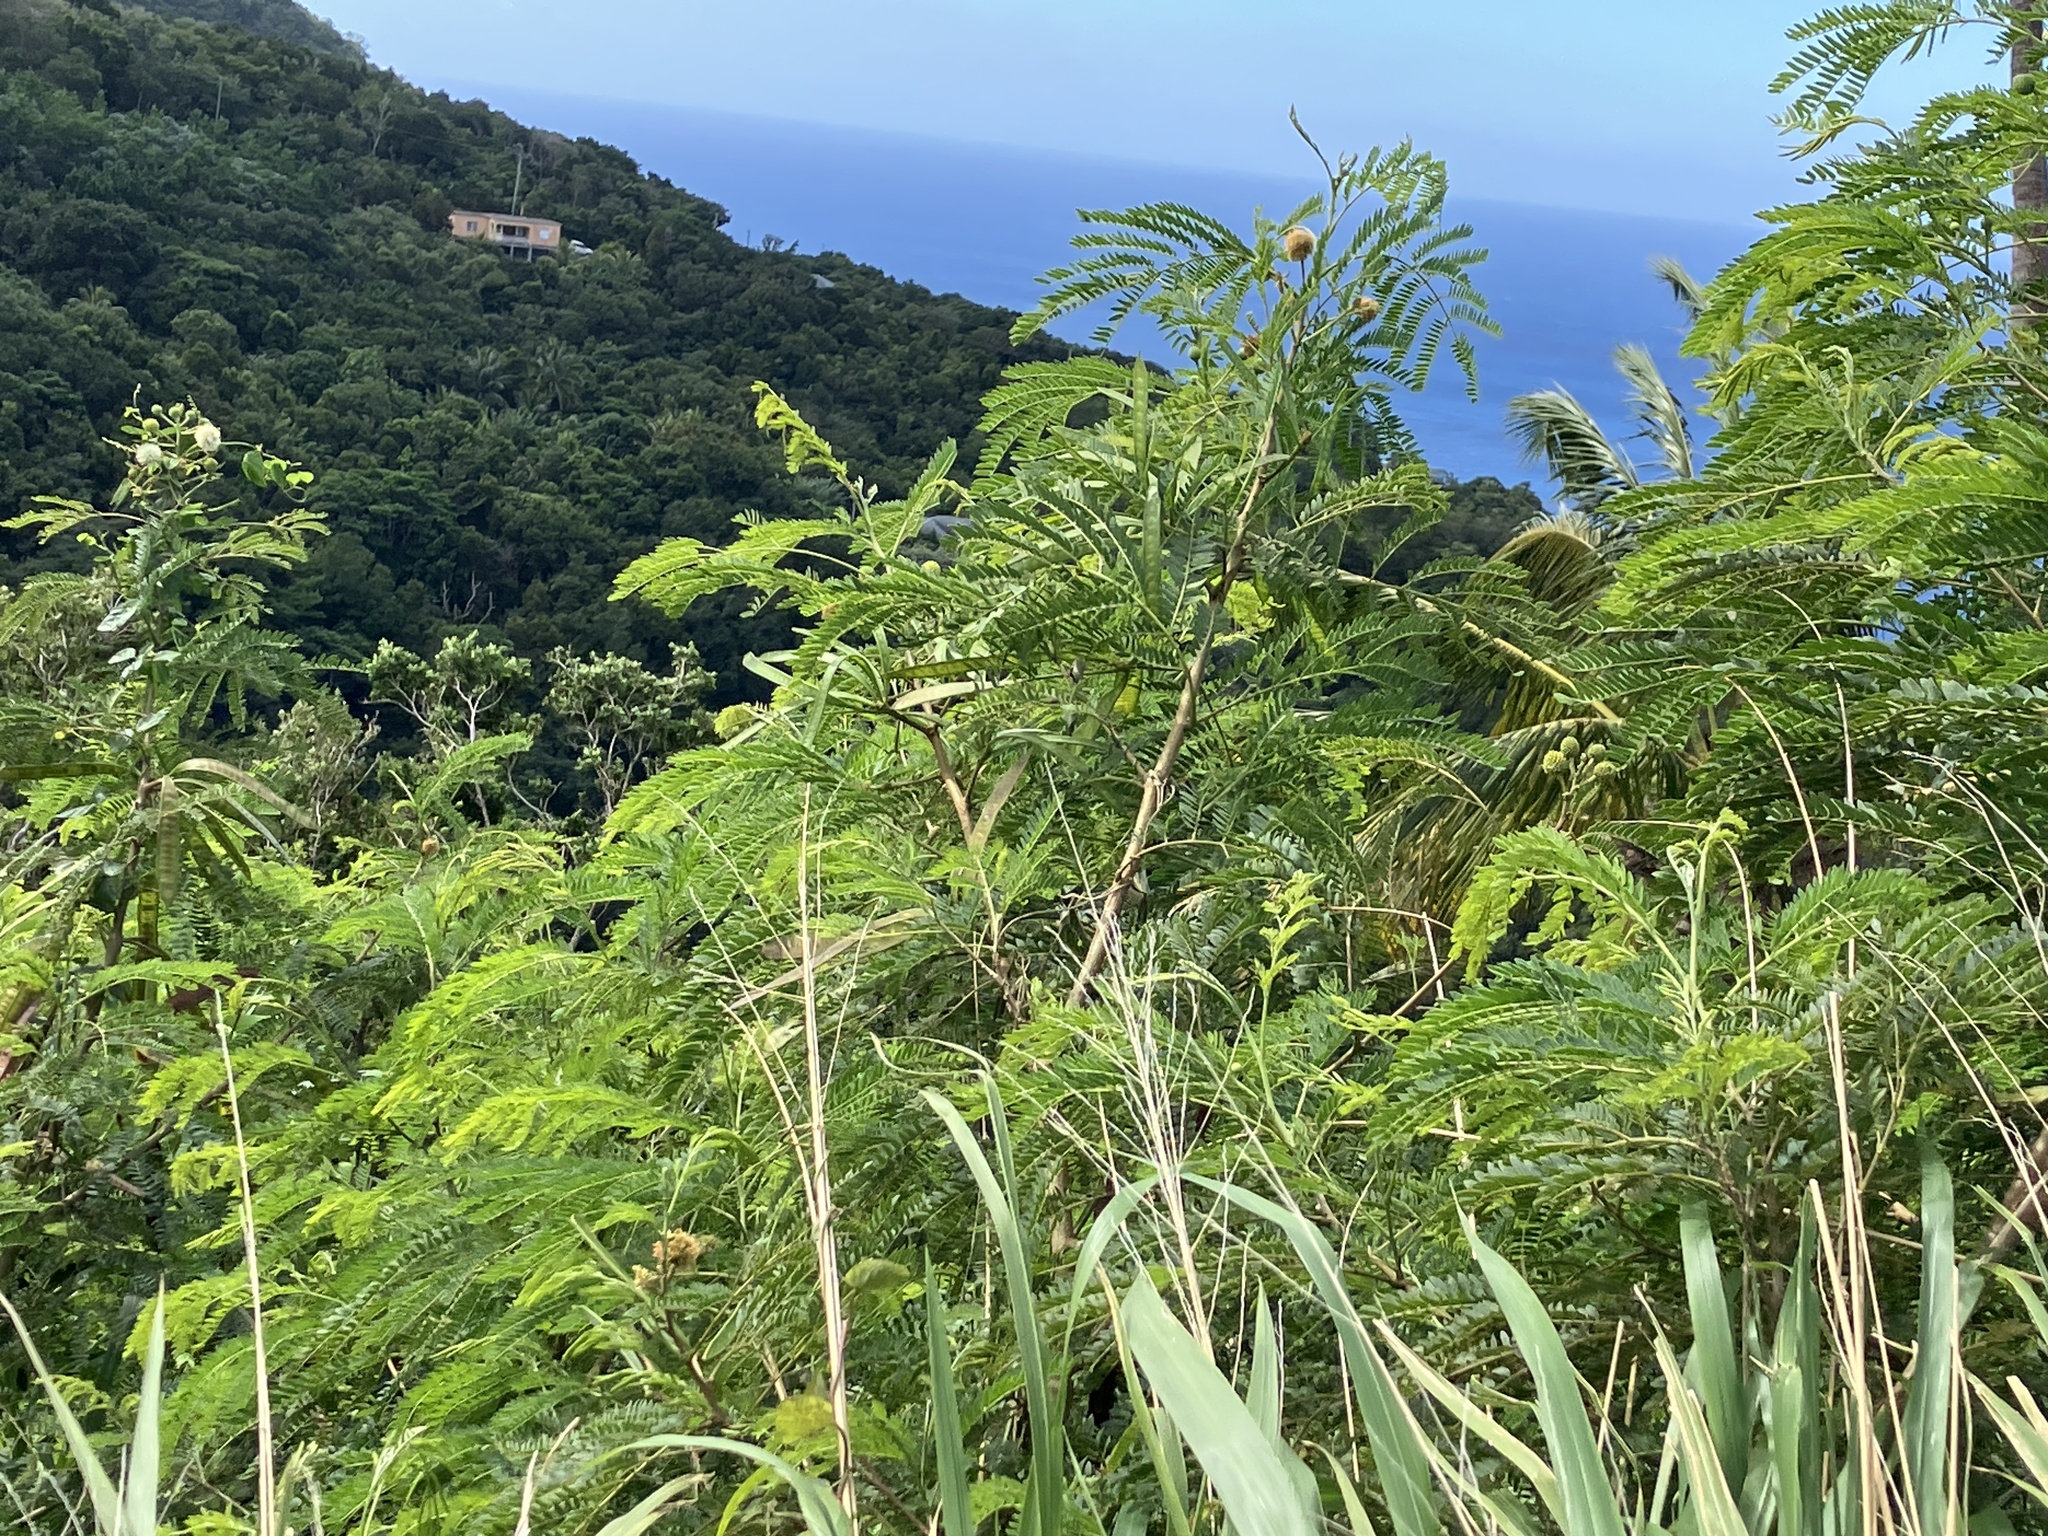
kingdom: Plantae
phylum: Tracheophyta
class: Magnoliopsida
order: Fabales
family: Fabaceae
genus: Leucaena
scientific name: Leucaena leucocephala
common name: White leadtree
